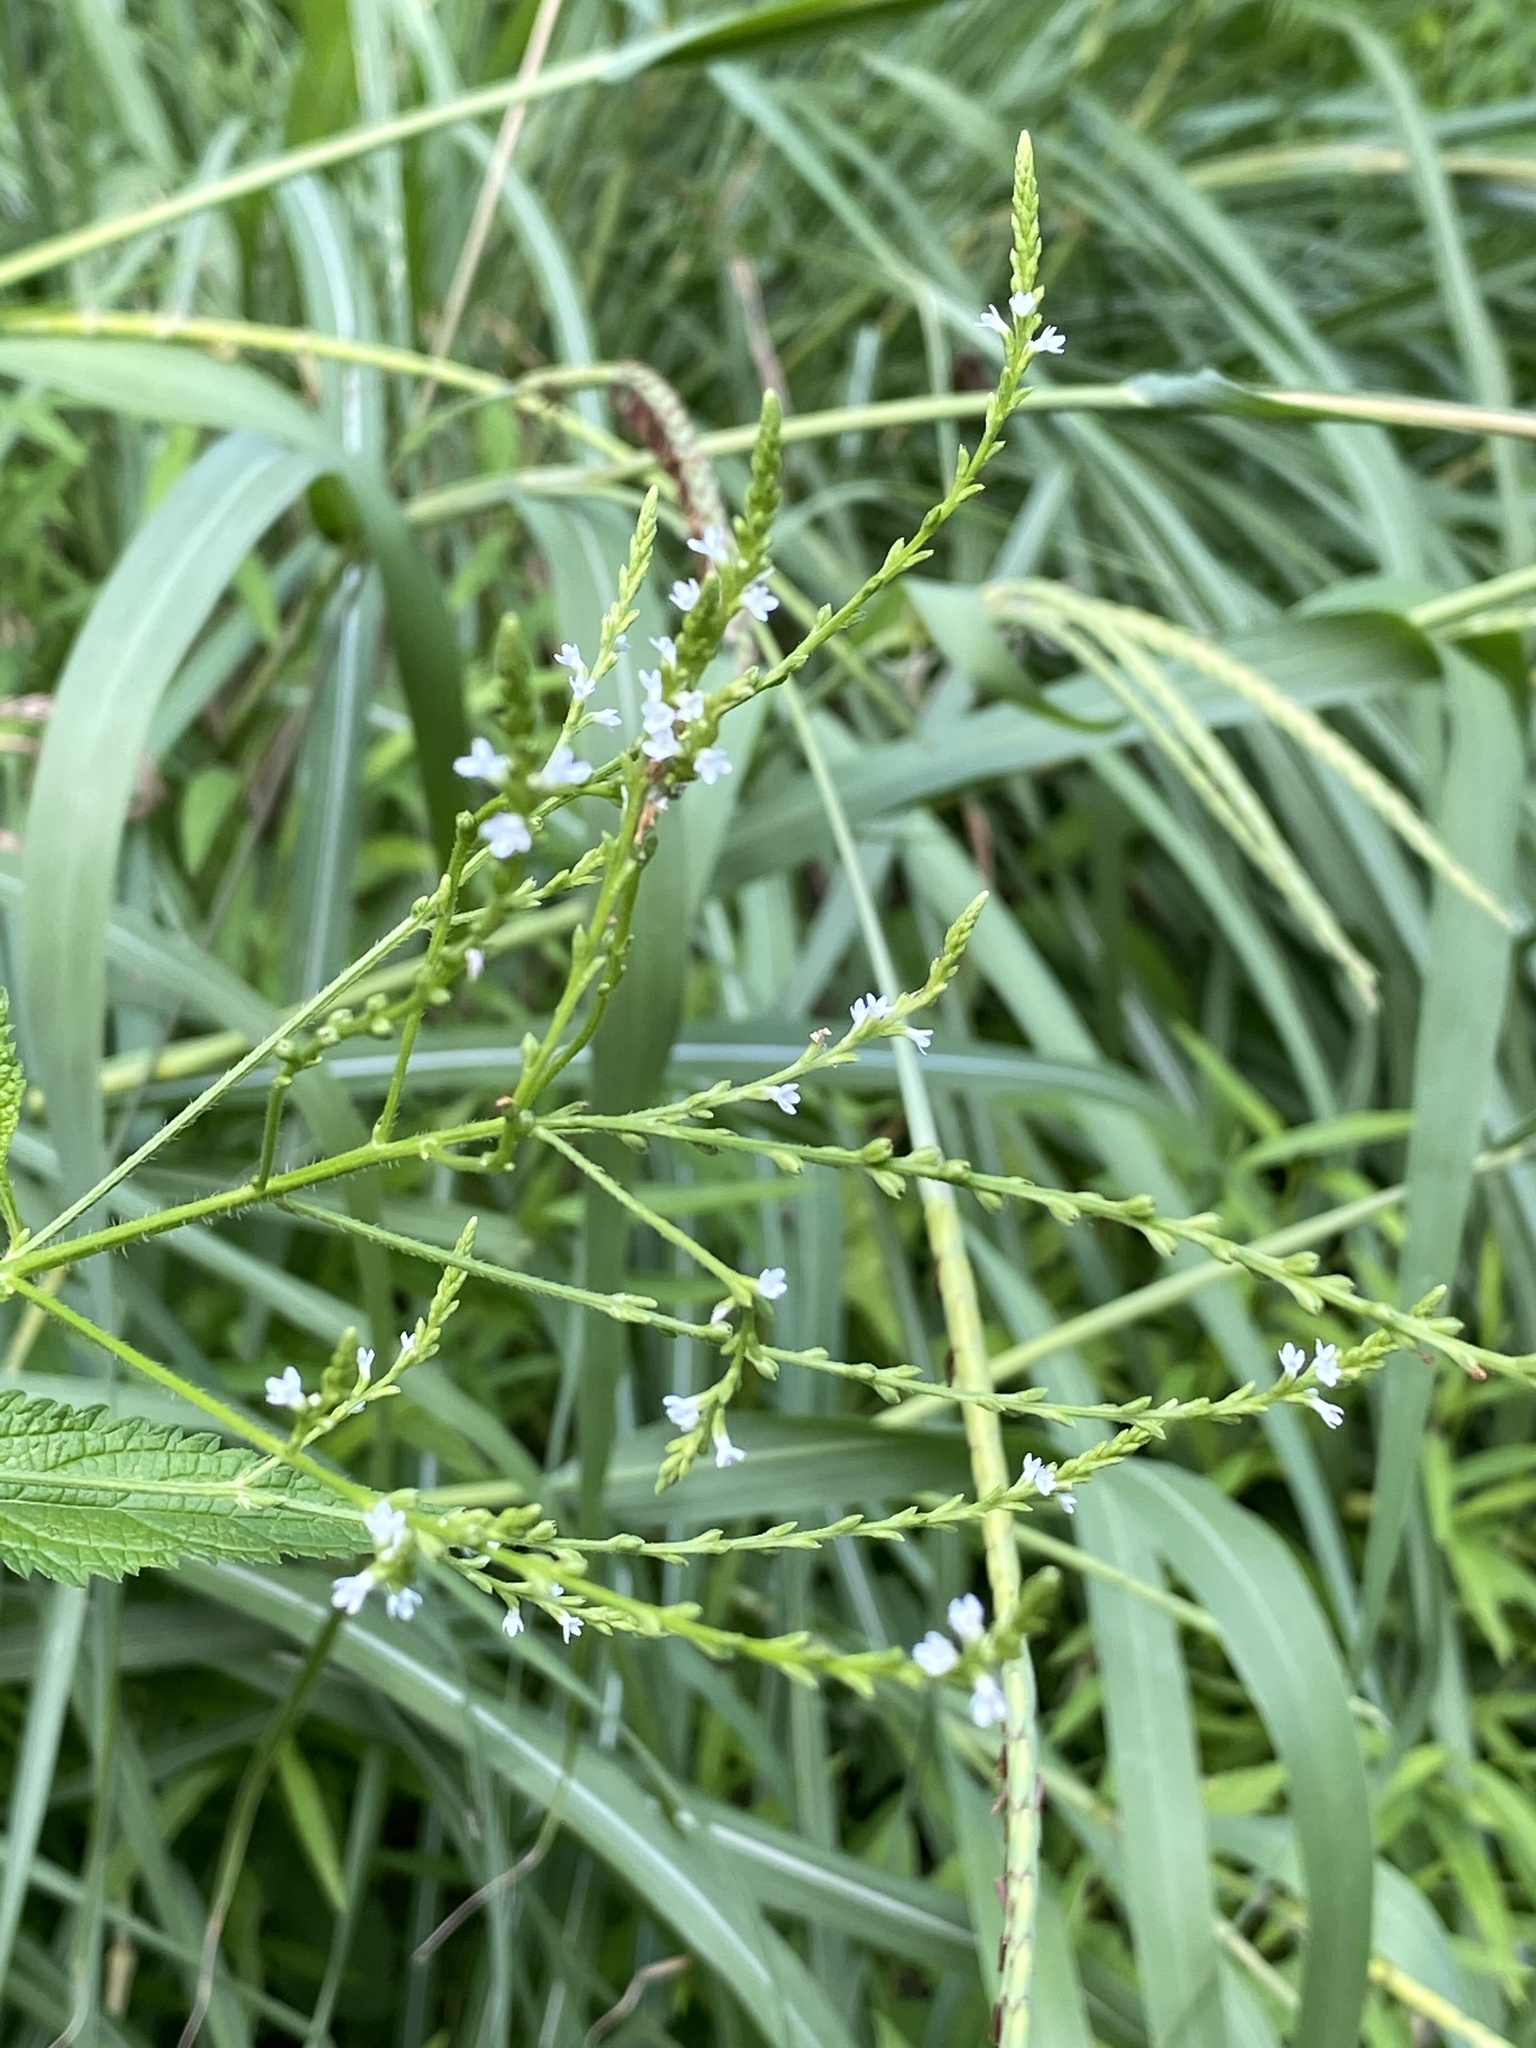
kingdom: Plantae
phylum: Tracheophyta
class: Magnoliopsida
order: Lamiales
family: Verbenaceae
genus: Verbena
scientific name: Verbena urticifolia
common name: Nettle-leaved vervain
